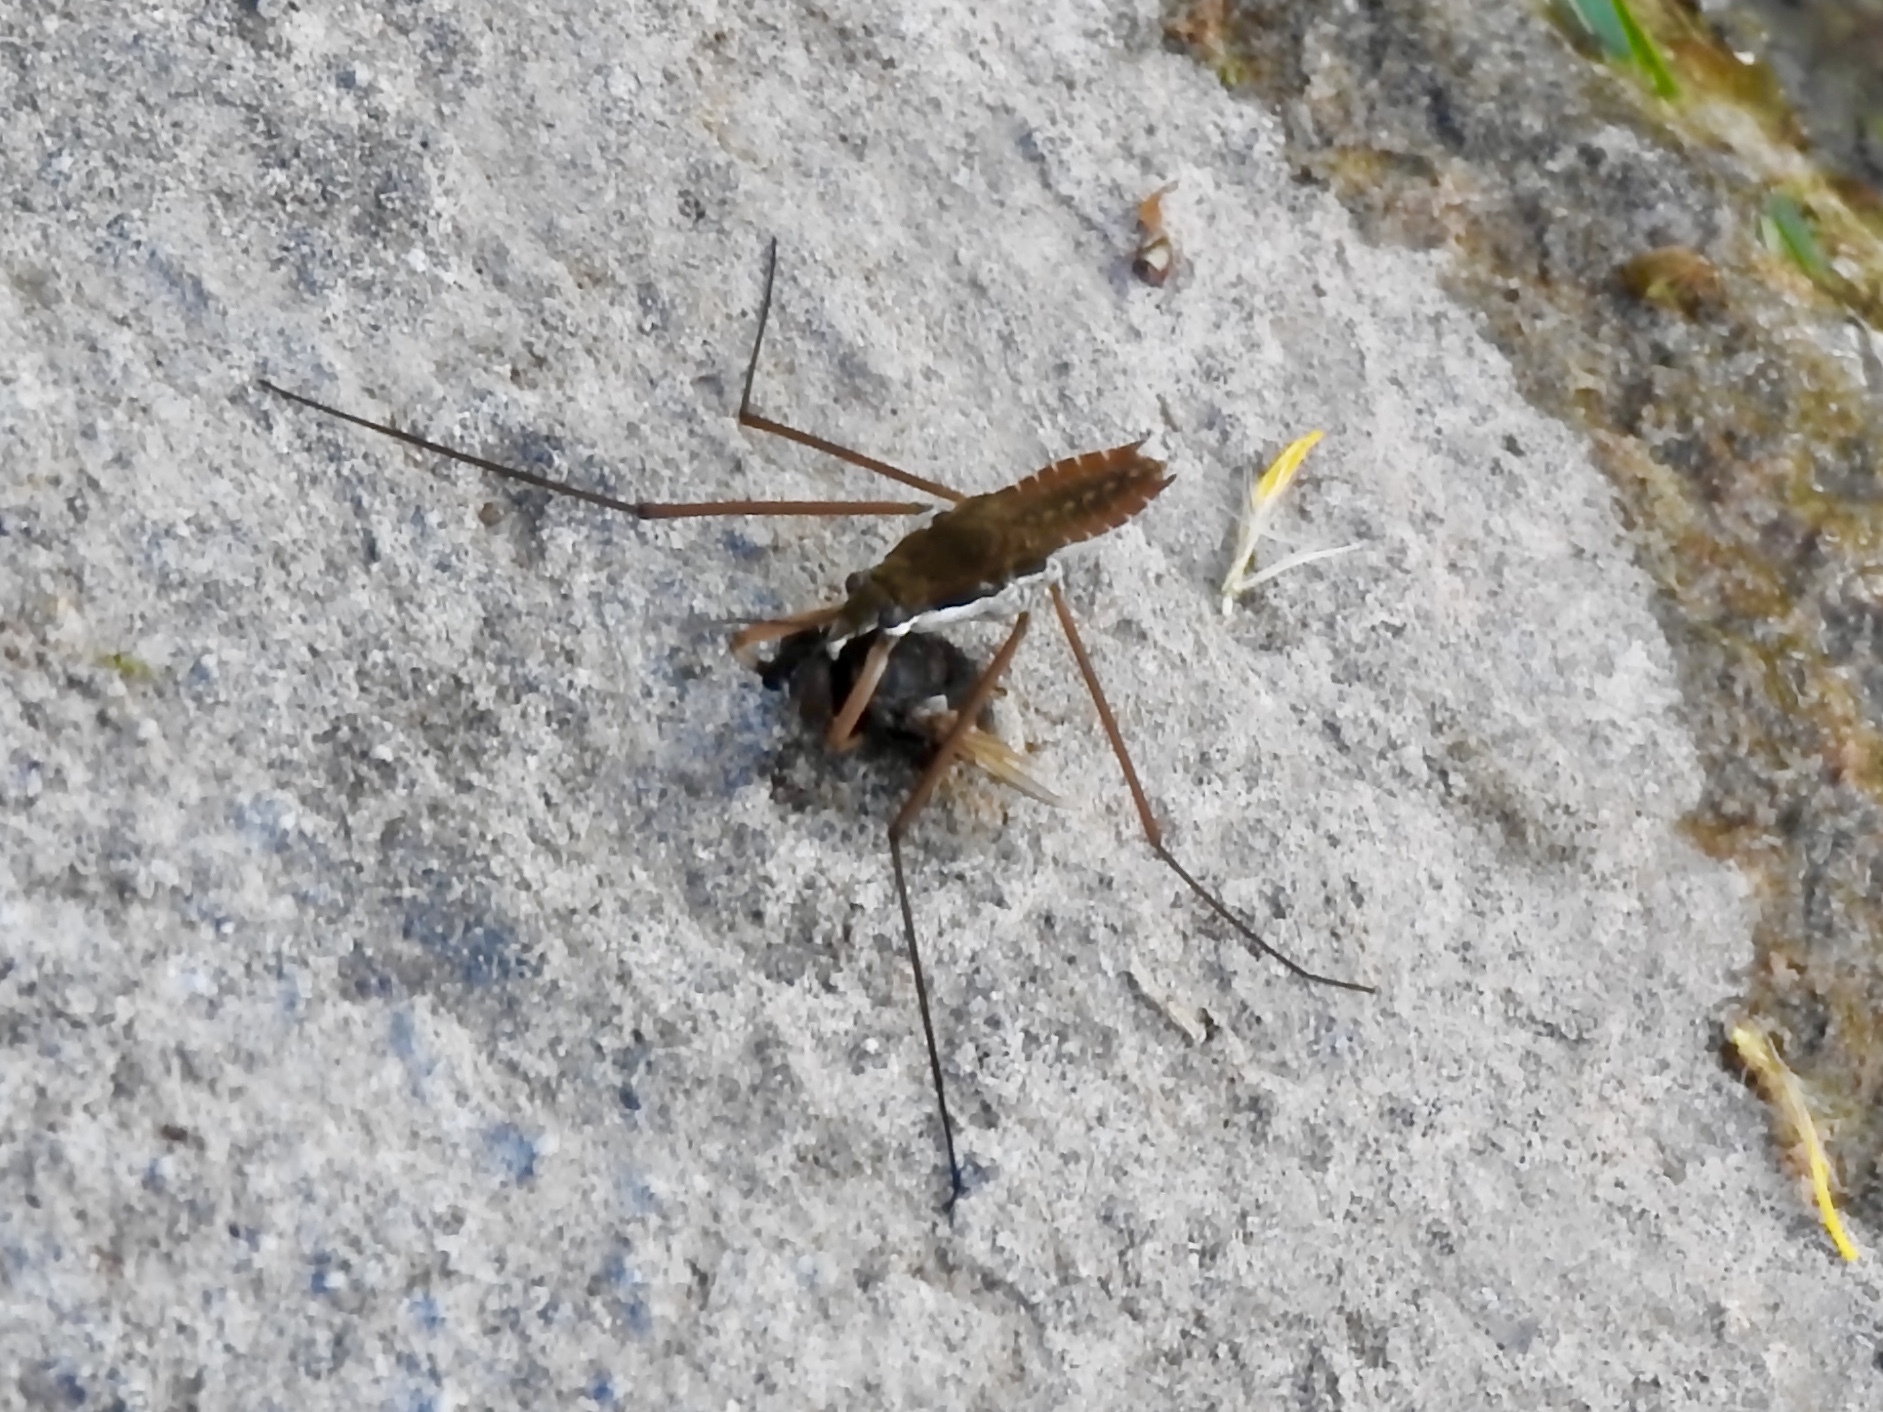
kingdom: Animalia
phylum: Arthropoda
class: Insecta
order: Hemiptera
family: Gerridae
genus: Aquarius
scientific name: Aquarius remigis
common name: Common water strider
